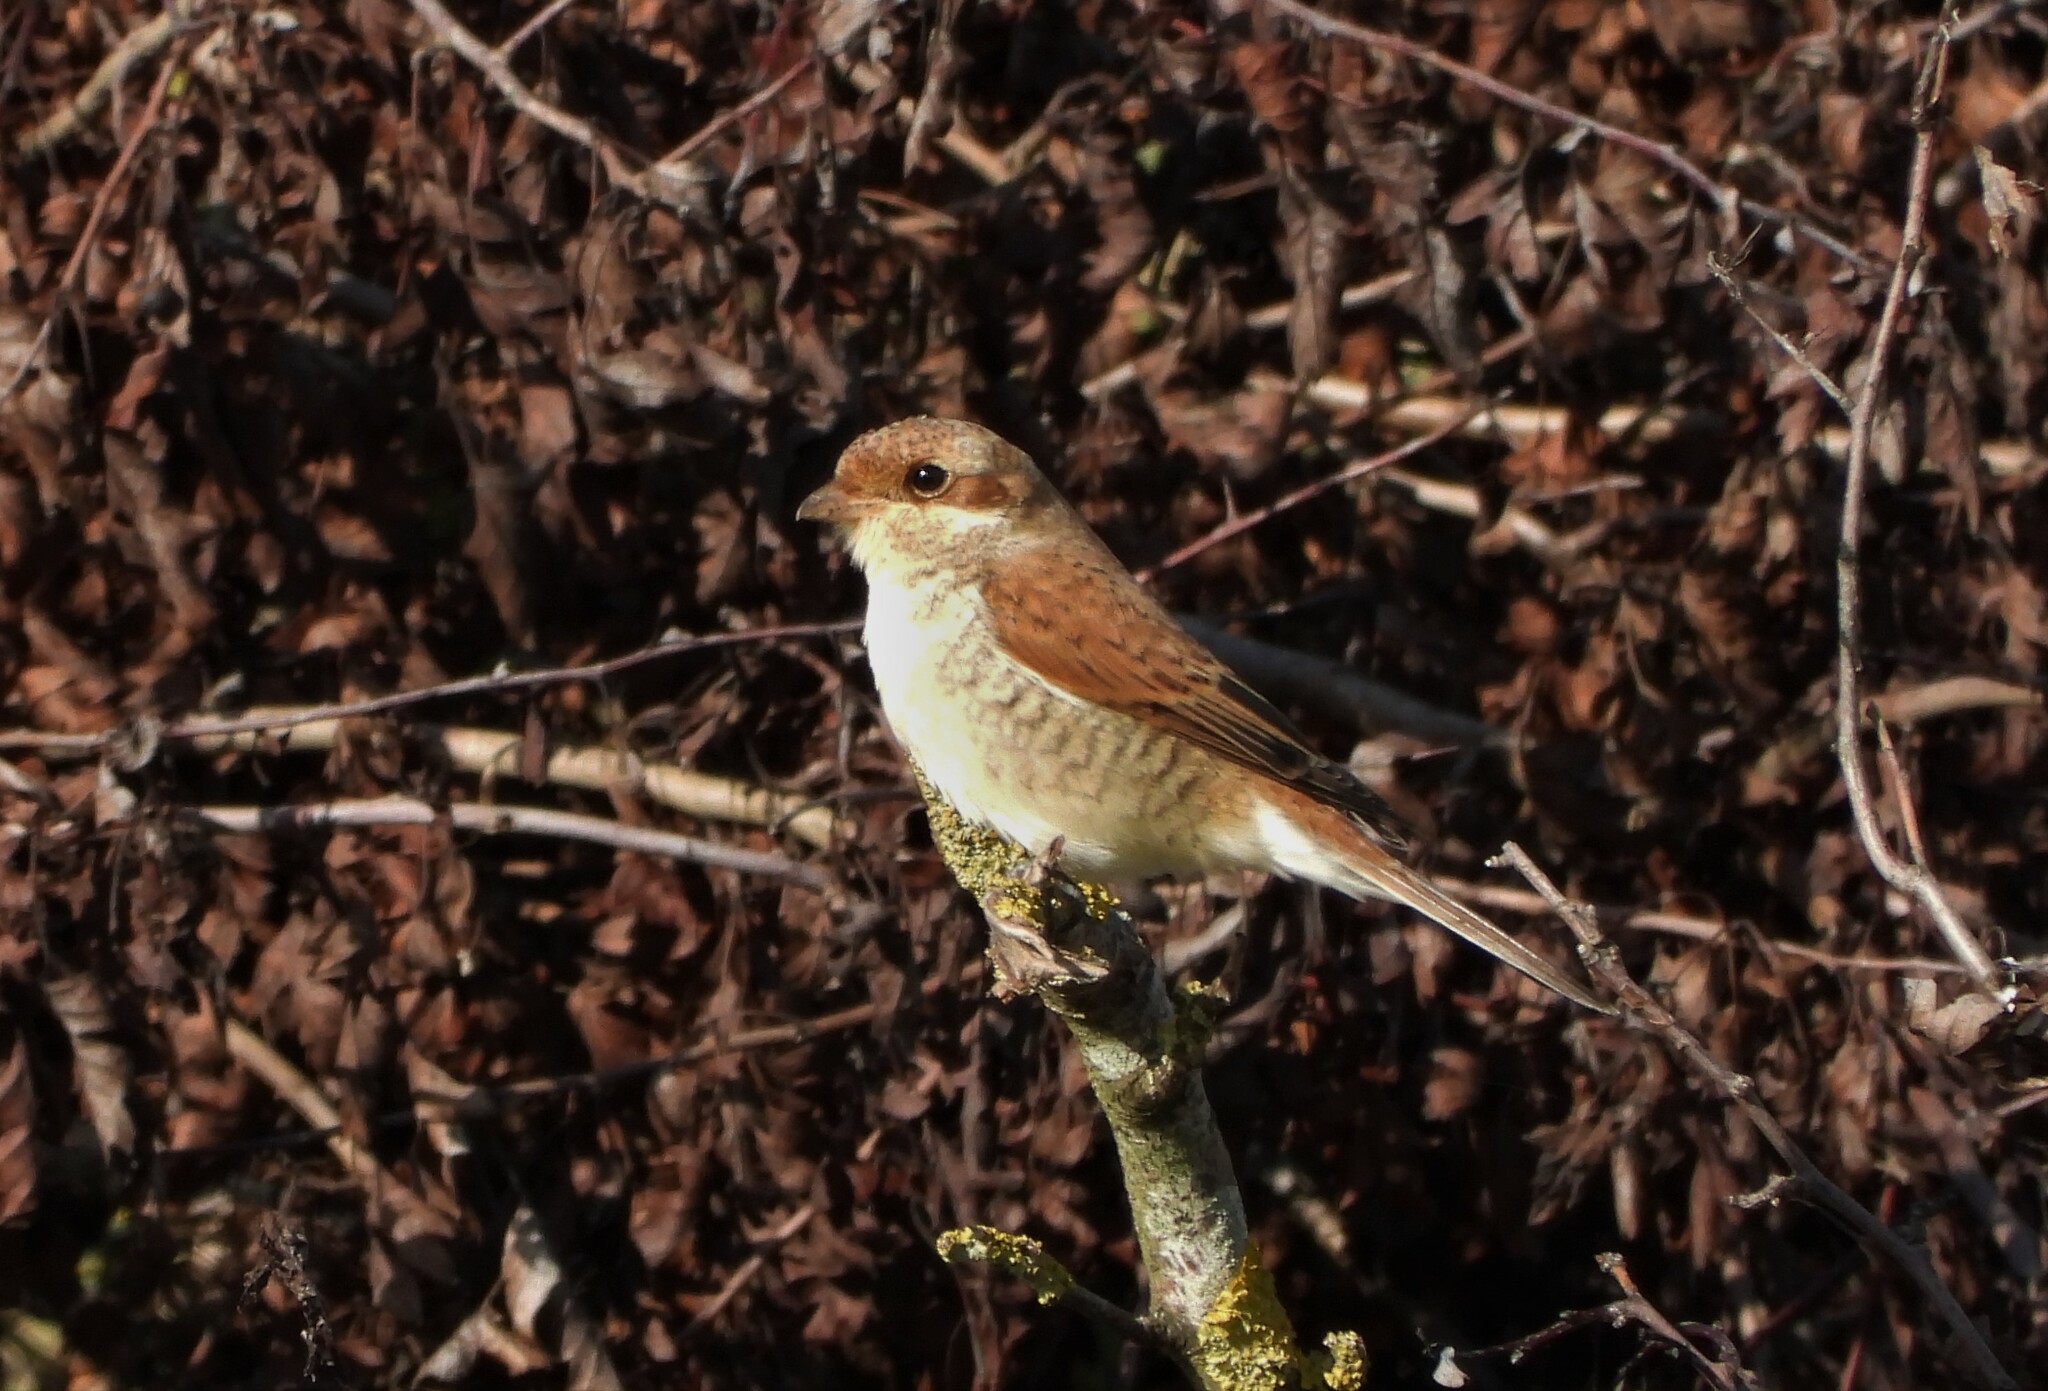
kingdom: Animalia
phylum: Chordata
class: Aves
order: Passeriformes
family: Laniidae
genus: Lanius
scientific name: Lanius collurio
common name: Red-backed shrike
